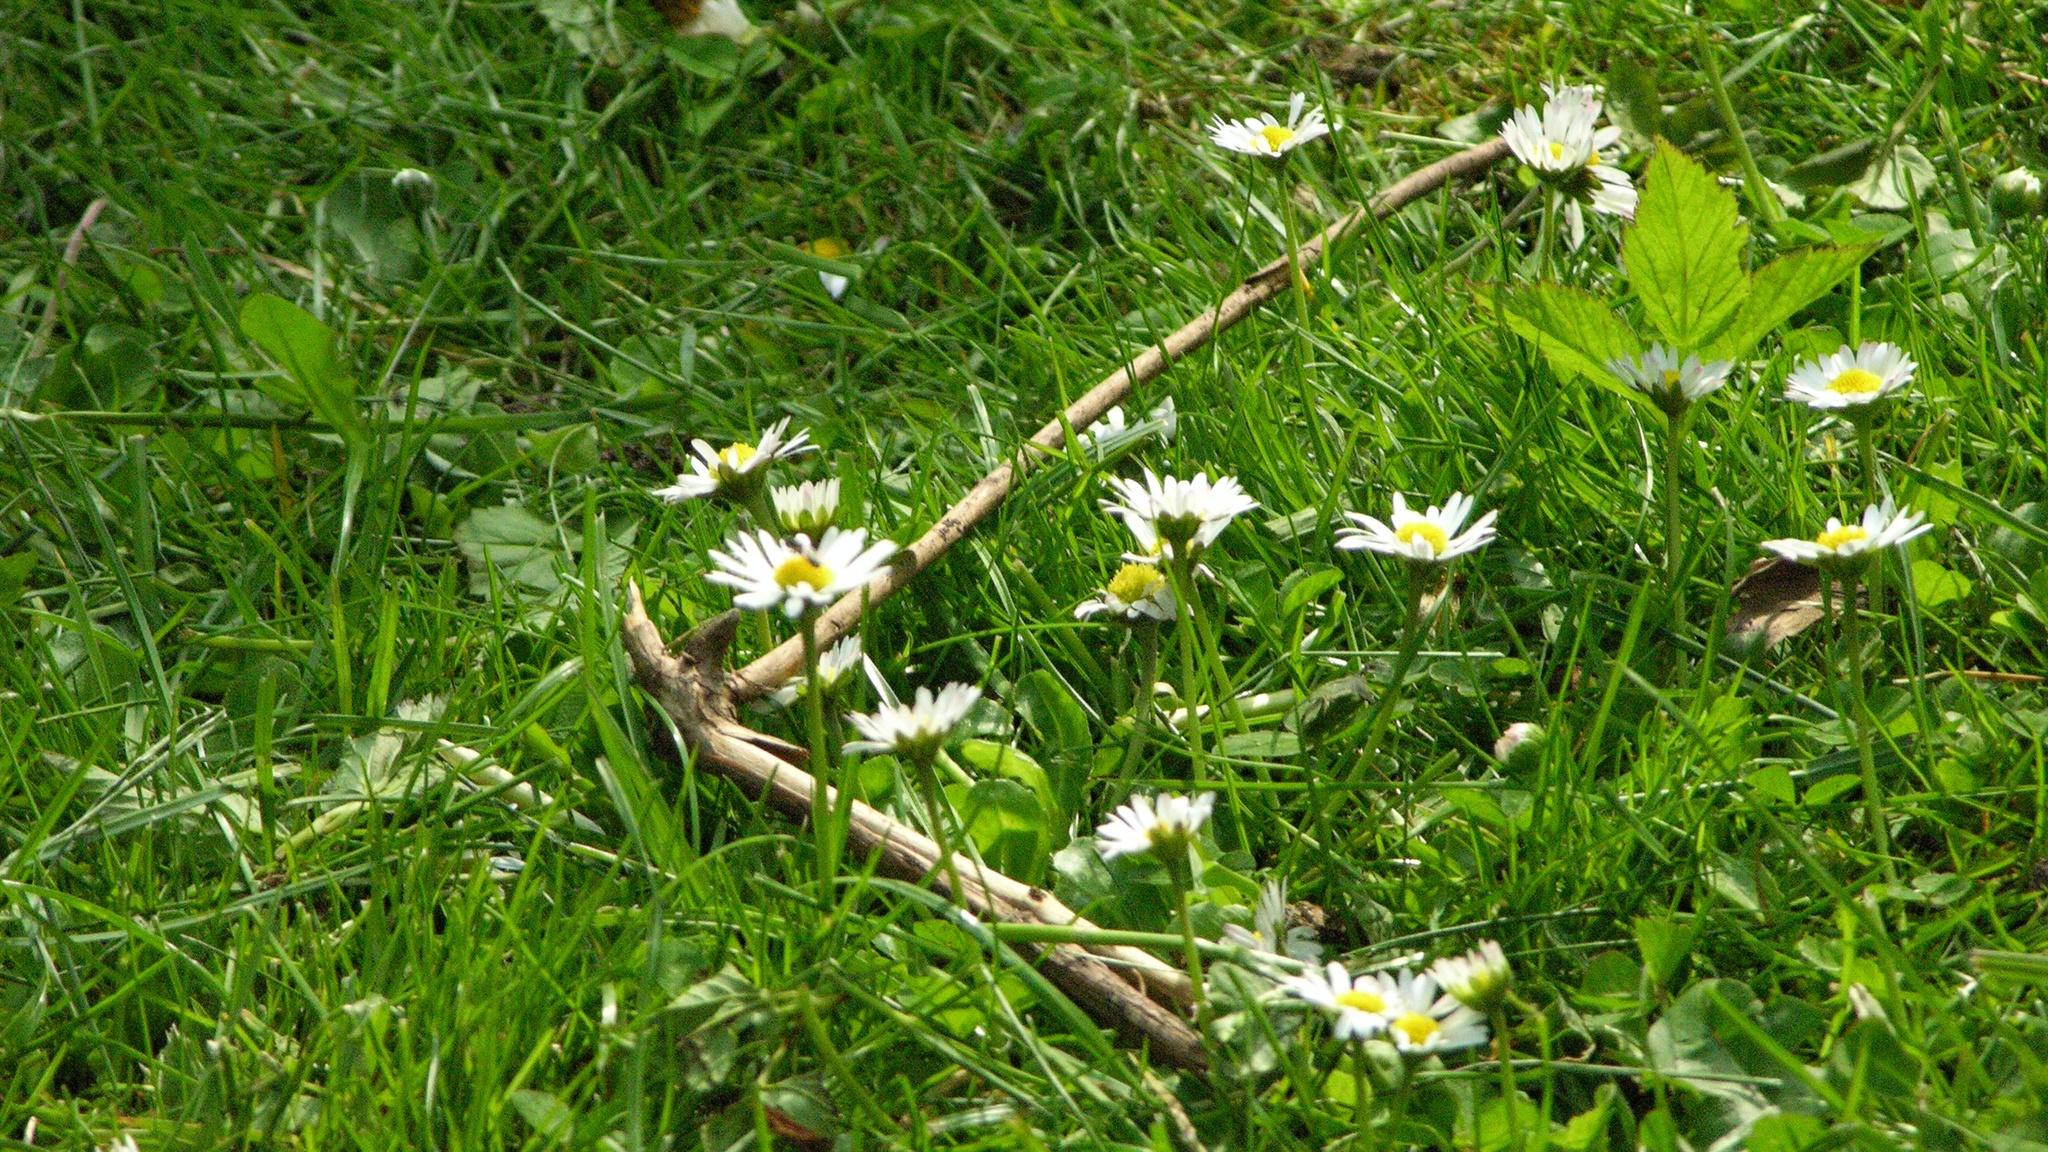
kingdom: Plantae
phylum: Tracheophyta
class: Magnoliopsida
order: Asterales
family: Asteraceae
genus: Bellis
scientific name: Bellis perennis
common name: Lawndaisy
